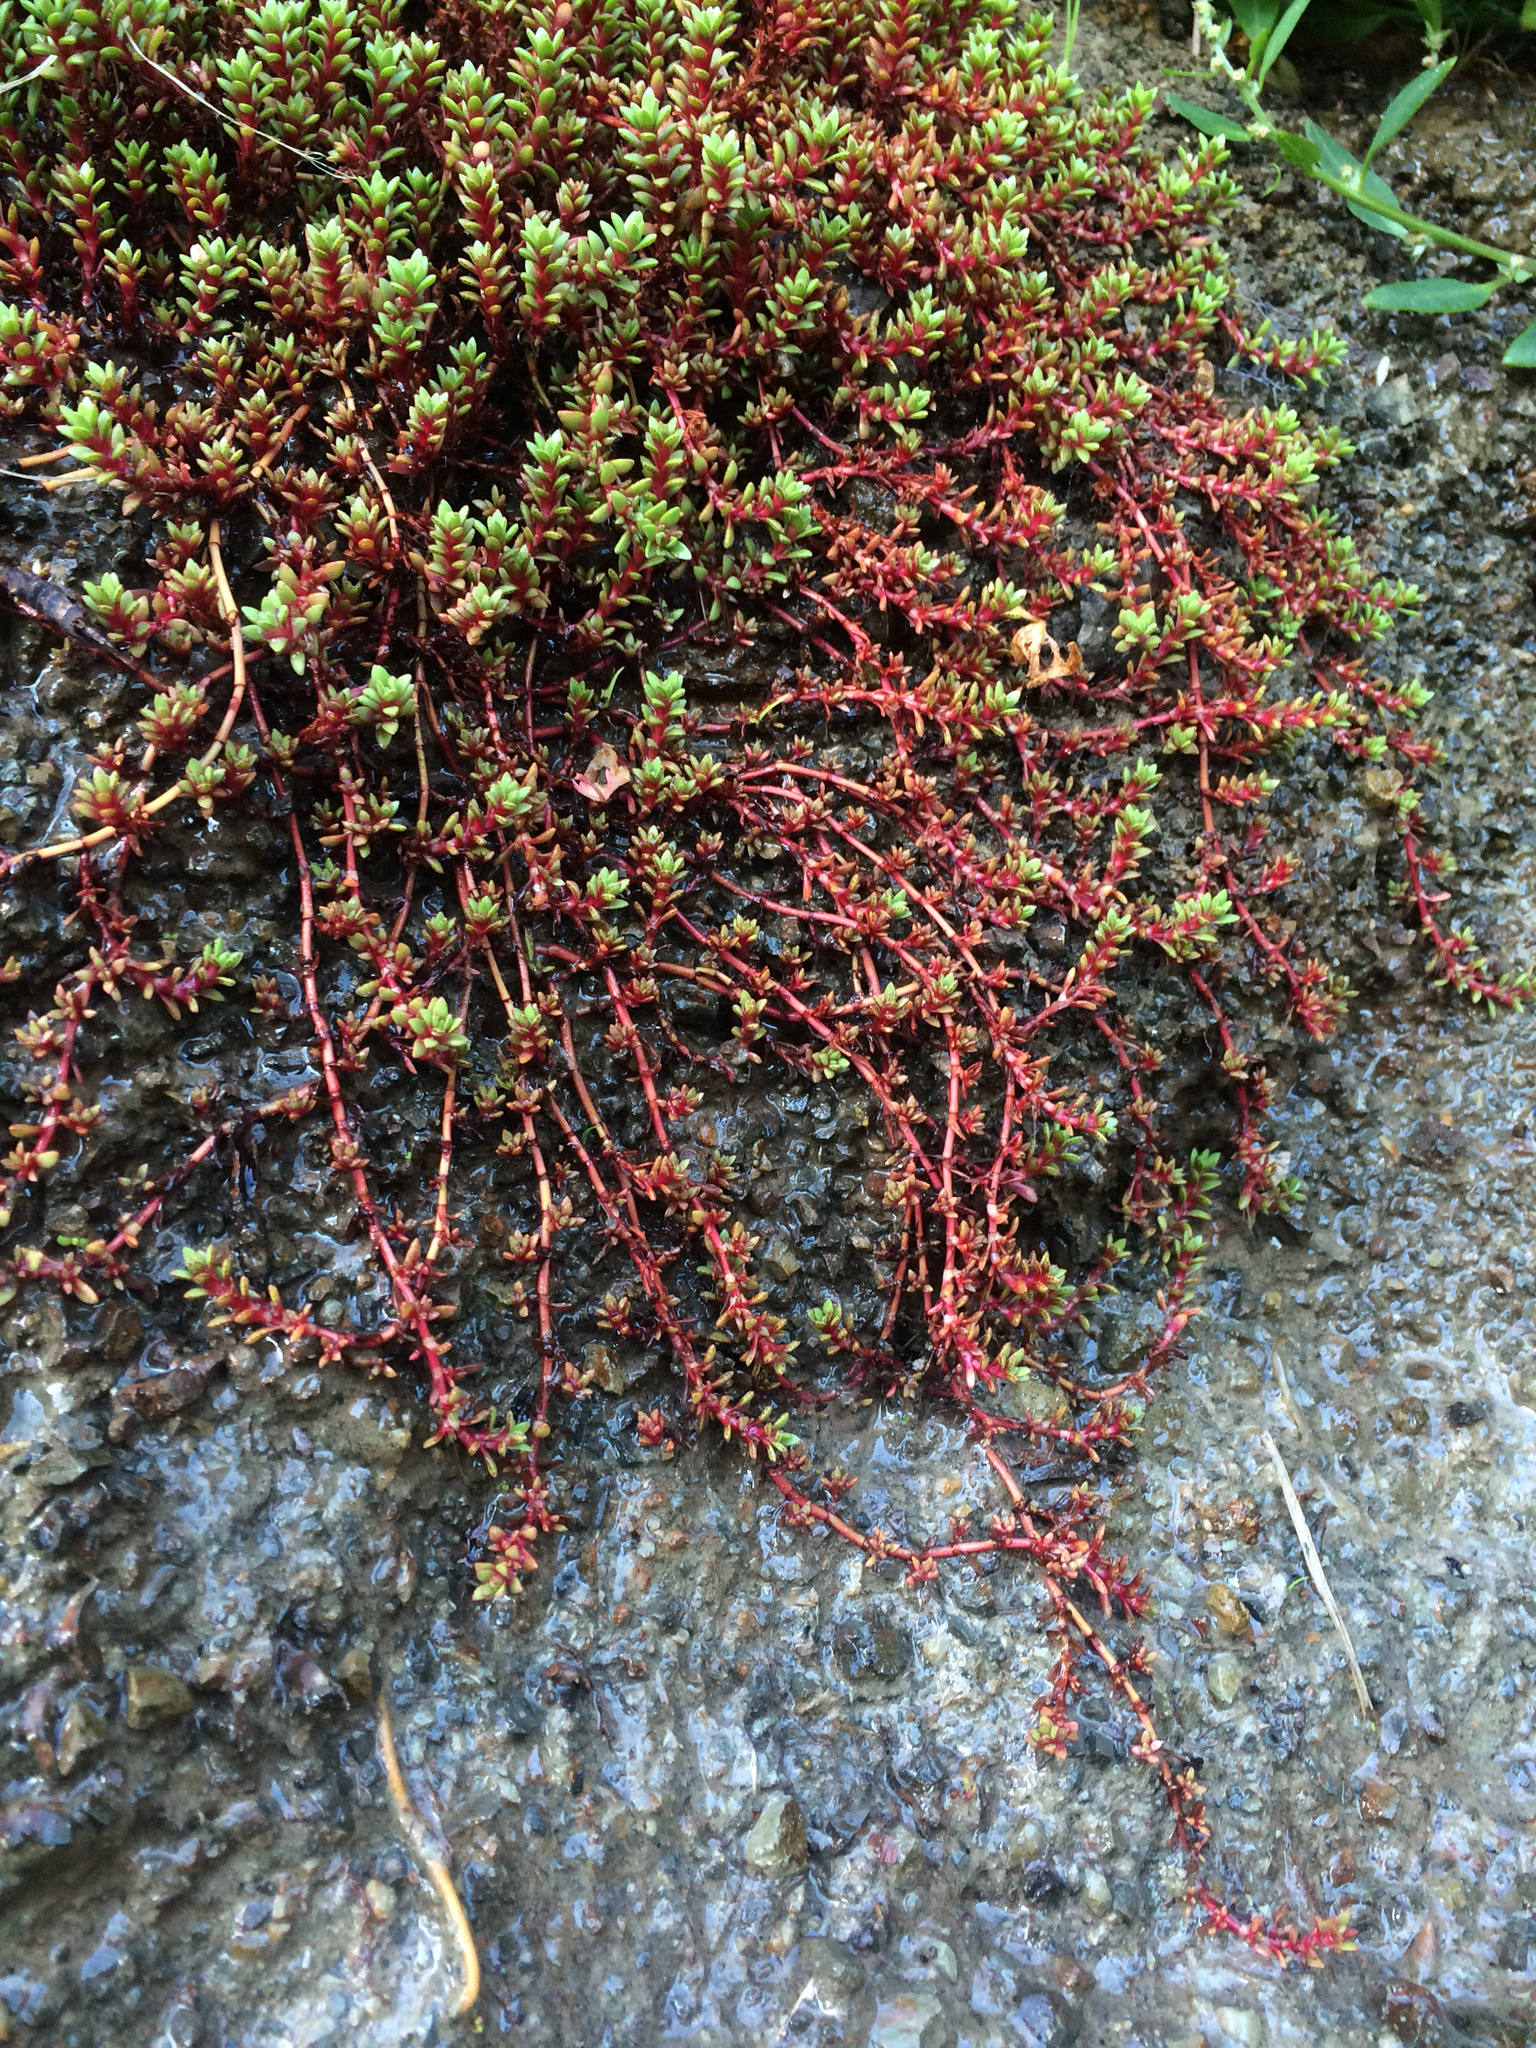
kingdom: Plantae
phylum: Tracheophyta
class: Magnoliopsida
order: Saxifragales
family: Crassulaceae
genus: Crassula
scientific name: Crassula moschata
